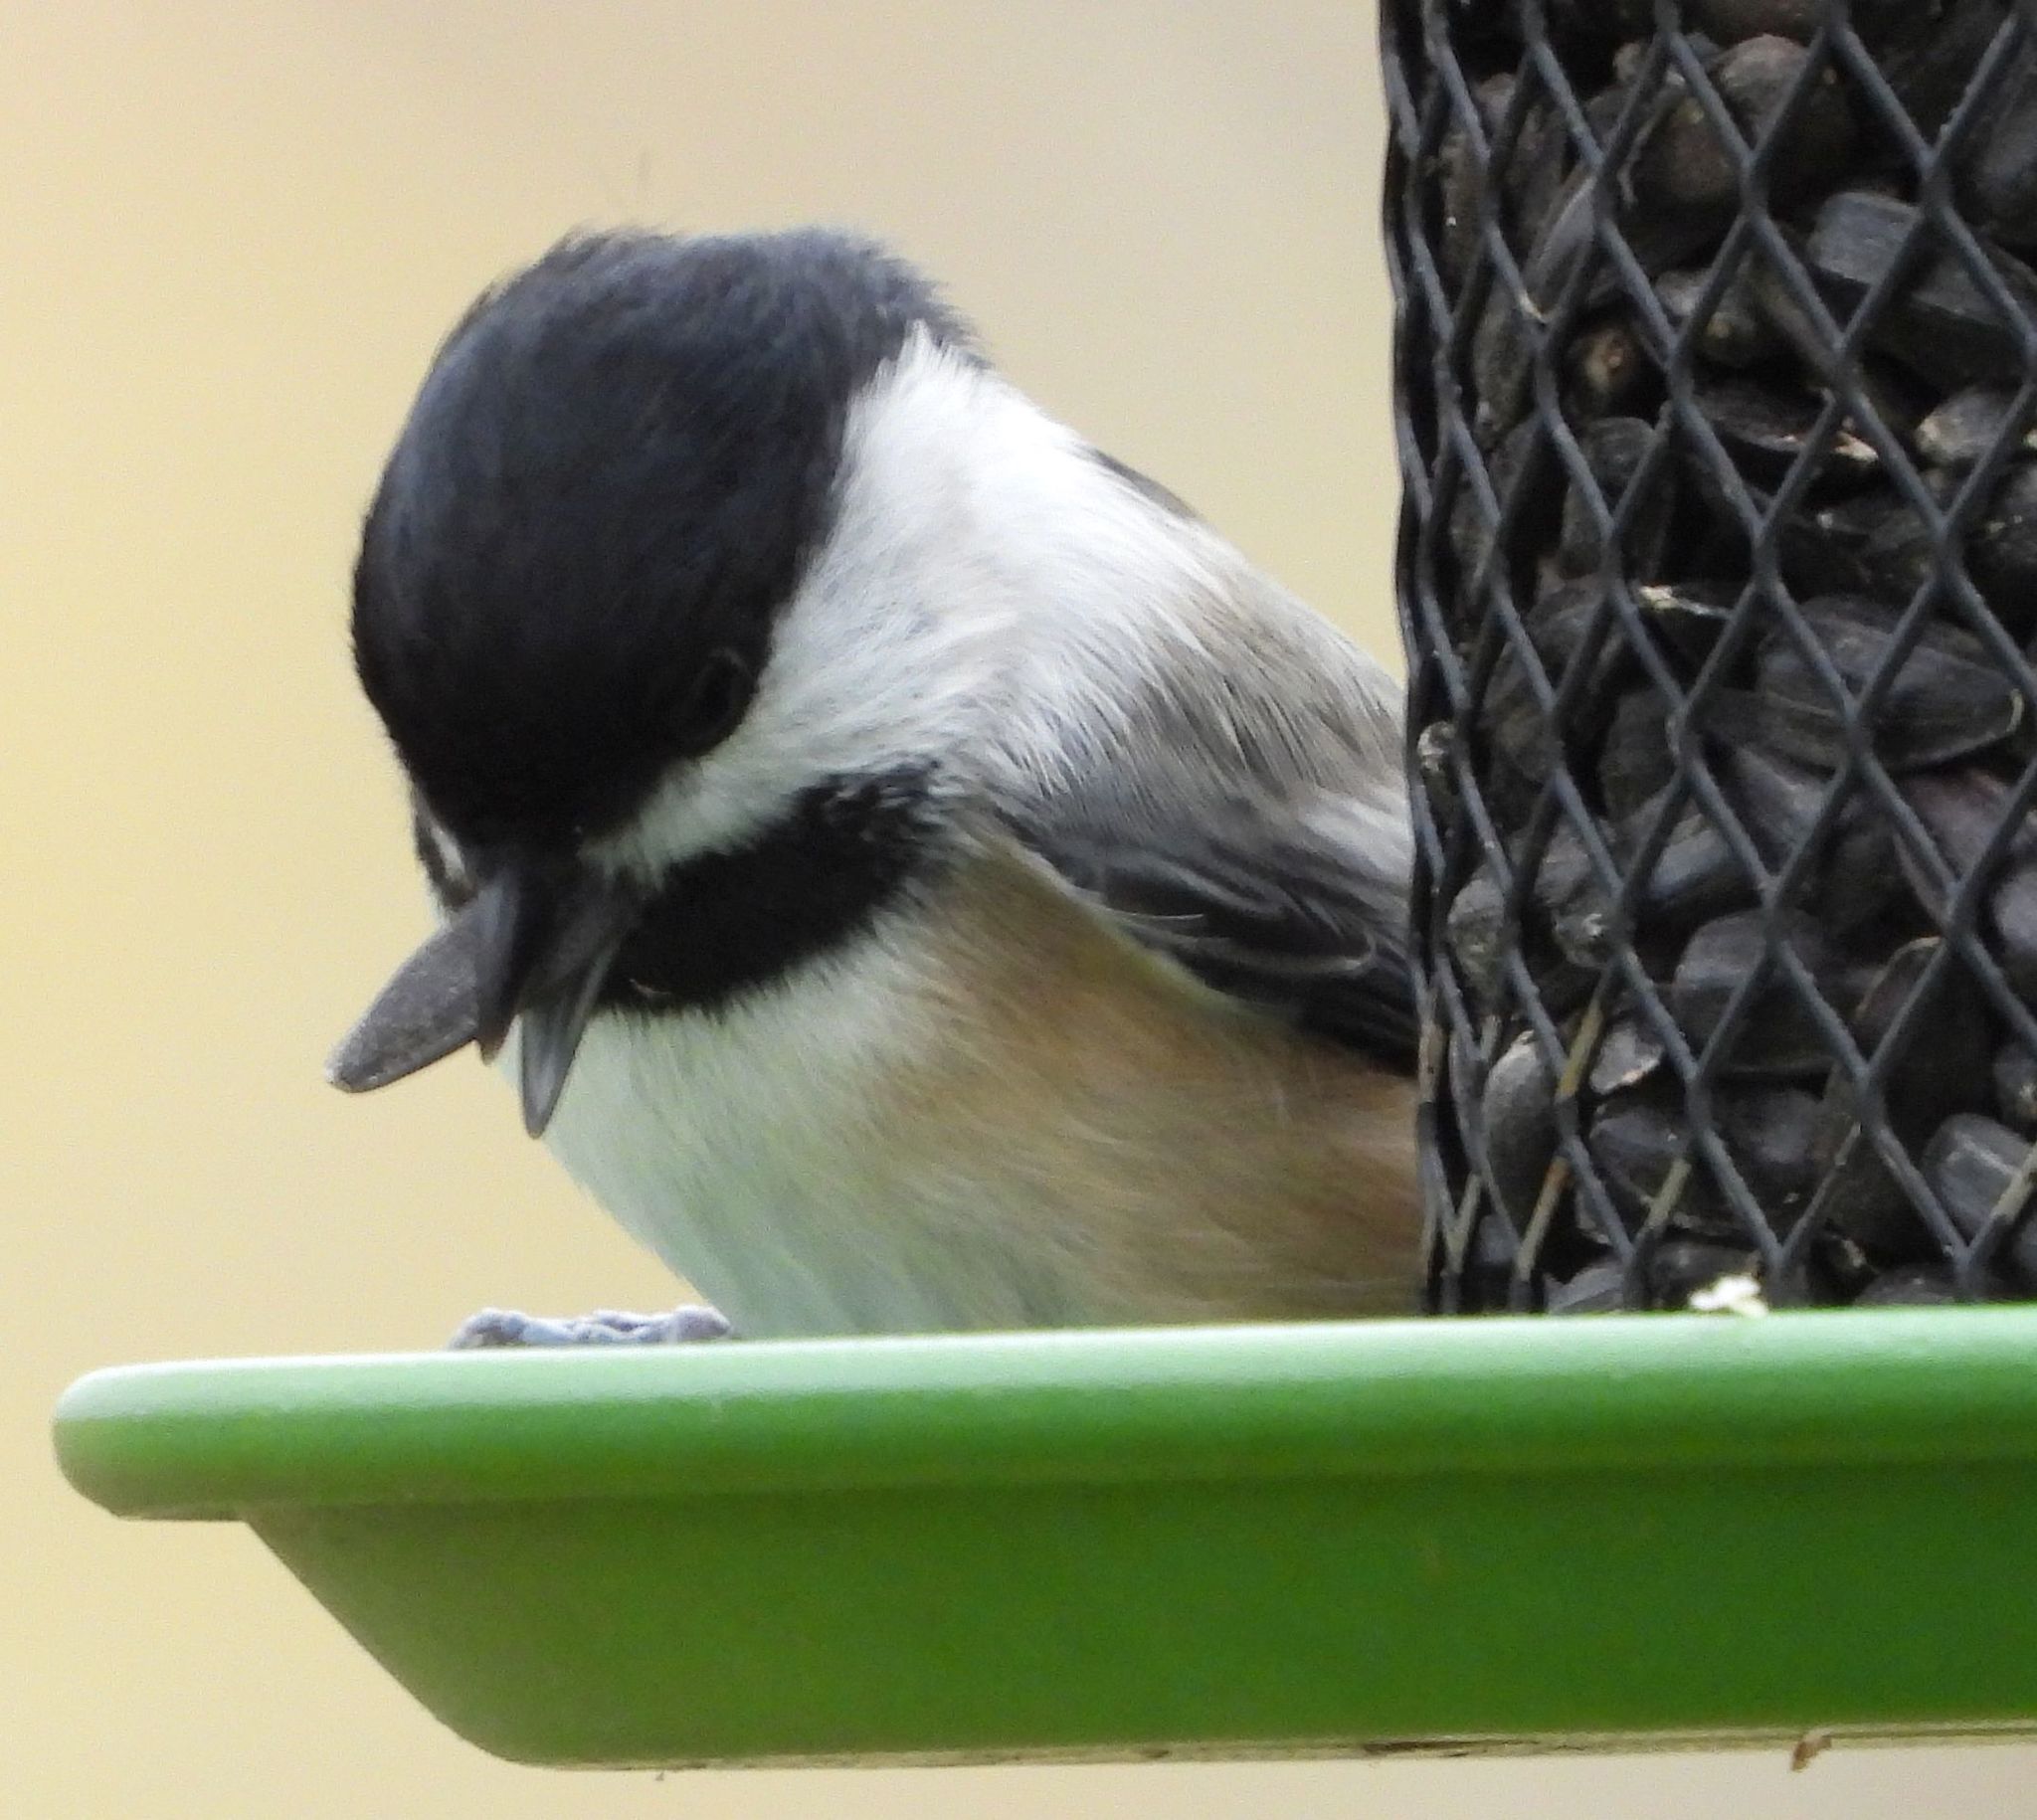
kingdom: Animalia
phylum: Chordata
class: Aves
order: Passeriformes
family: Paridae
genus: Poecile
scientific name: Poecile atricapillus
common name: Black-capped chickadee
